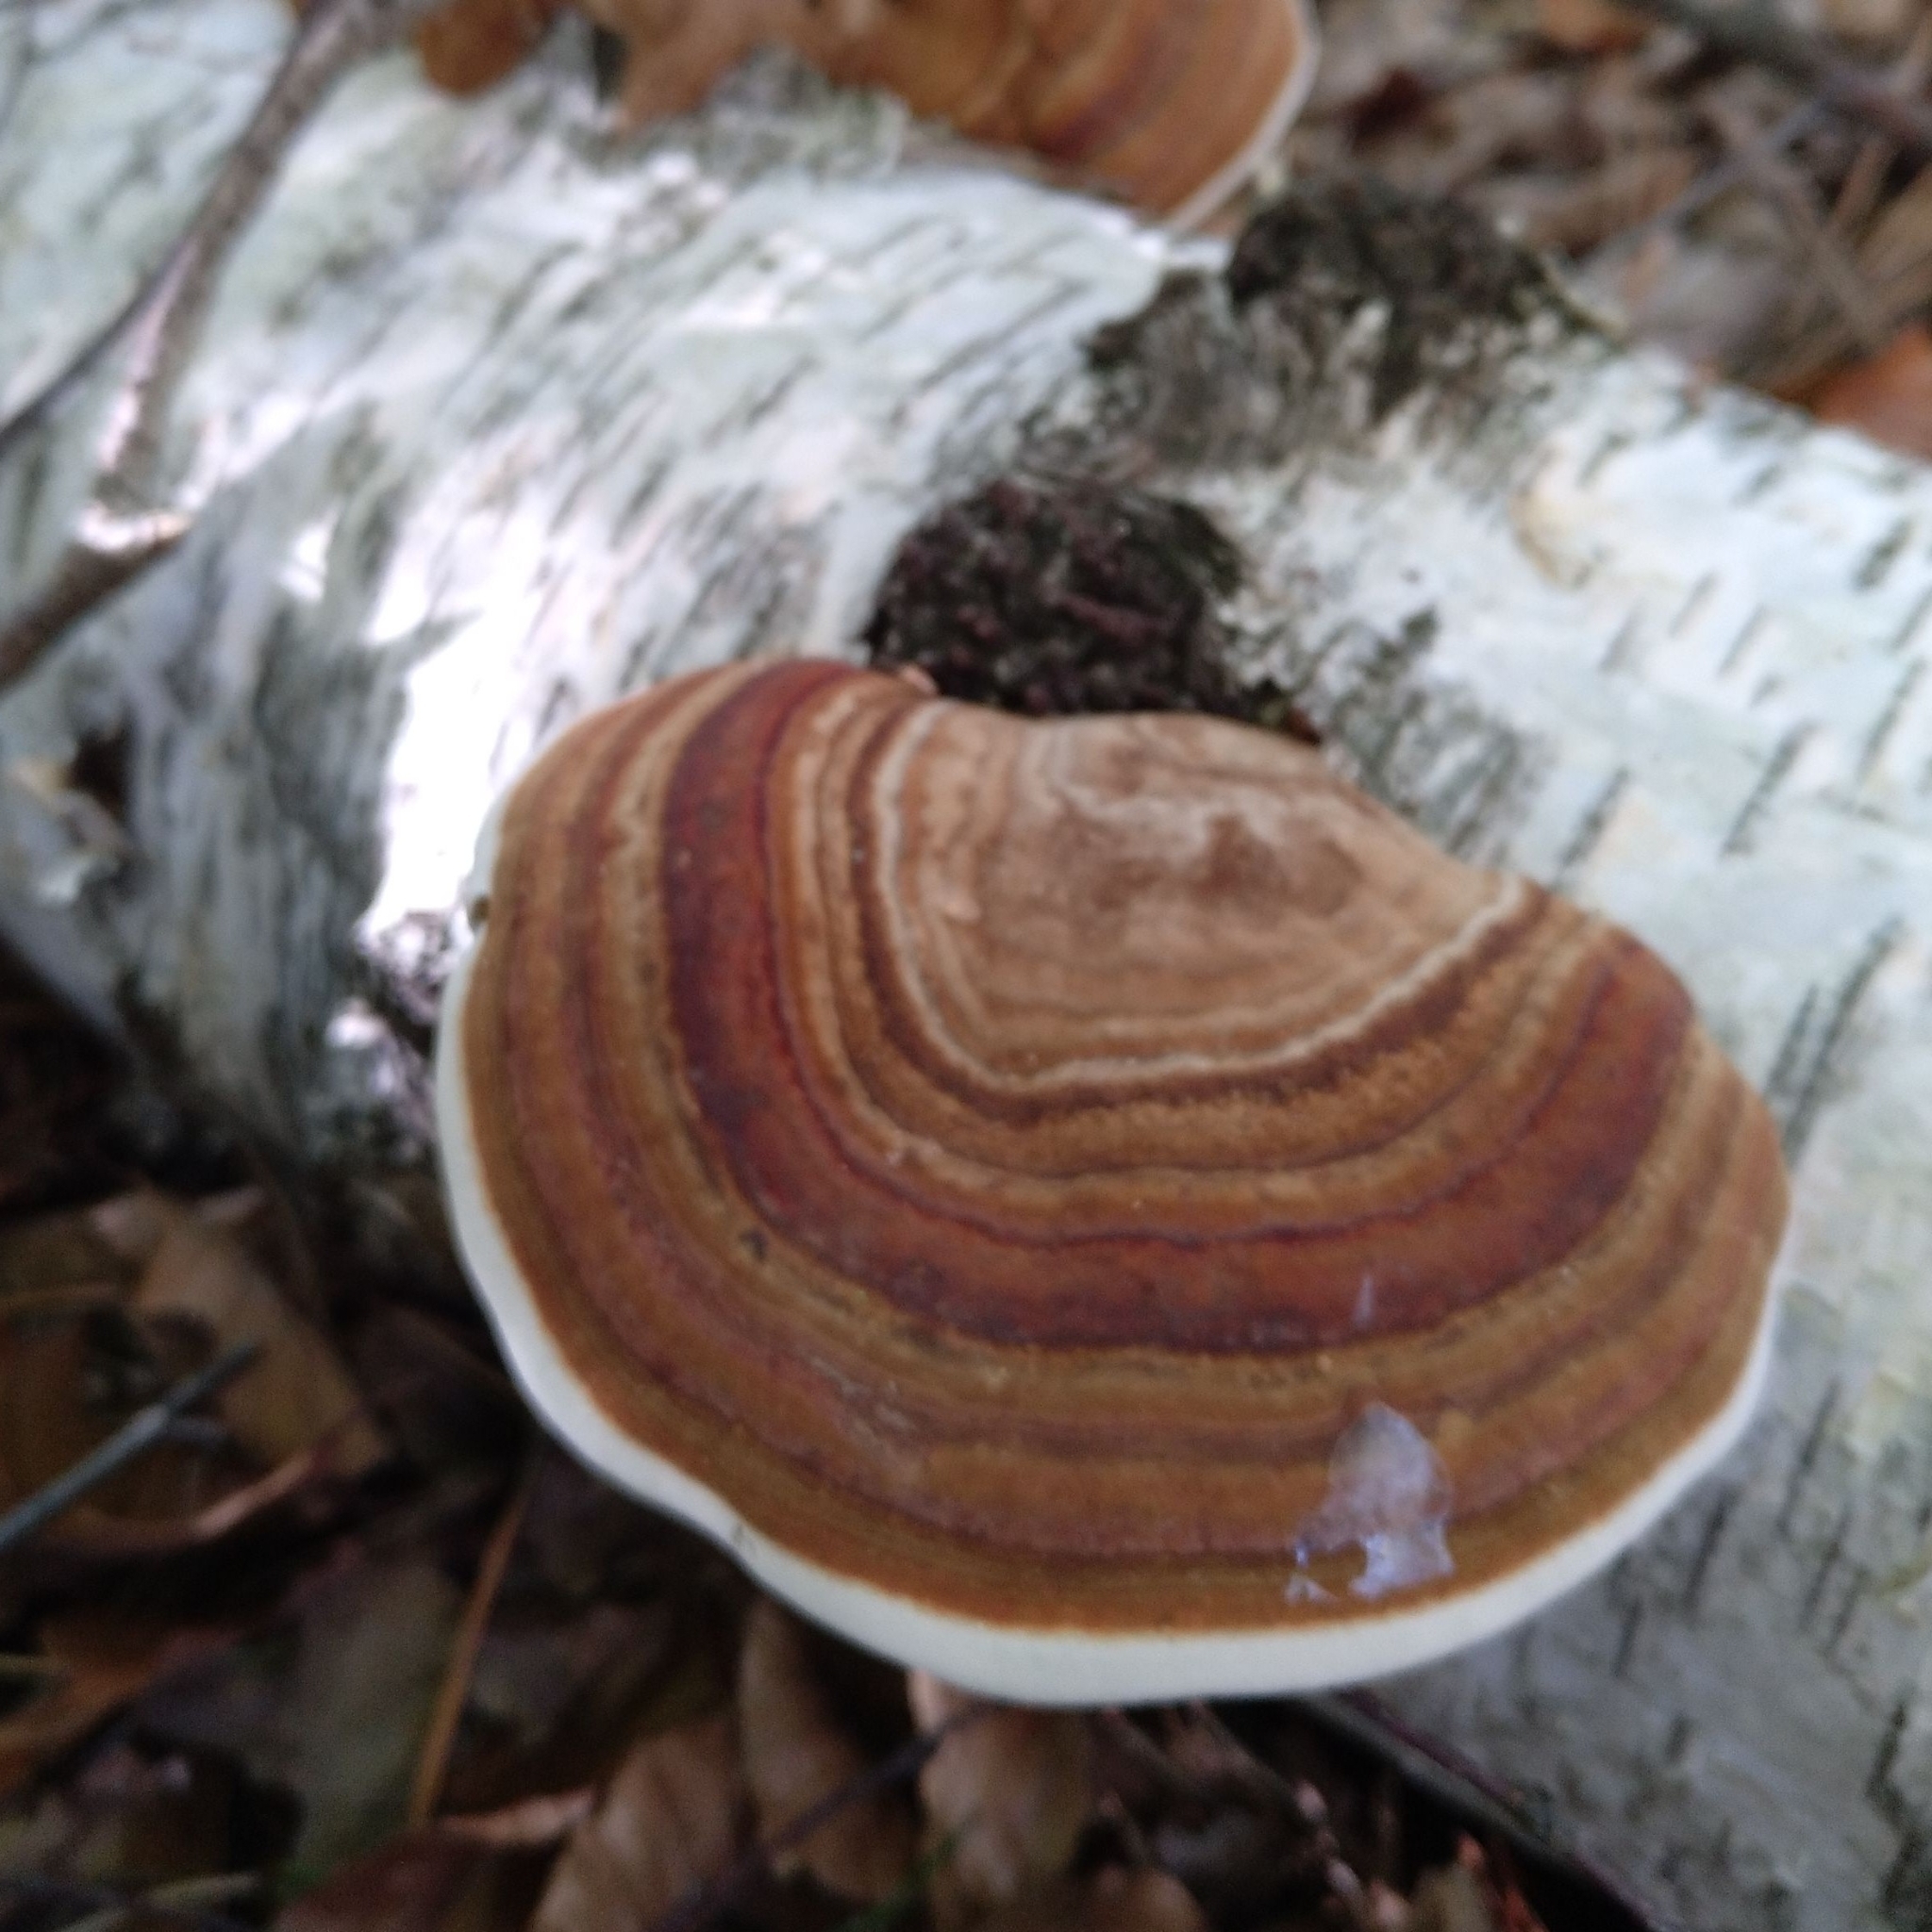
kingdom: Fungi
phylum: Basidiomycota
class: Agaricomycetes
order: Polyporales
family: Polyporaceae
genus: Fomes
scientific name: Fomes fomentarius
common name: Hoof fungus
